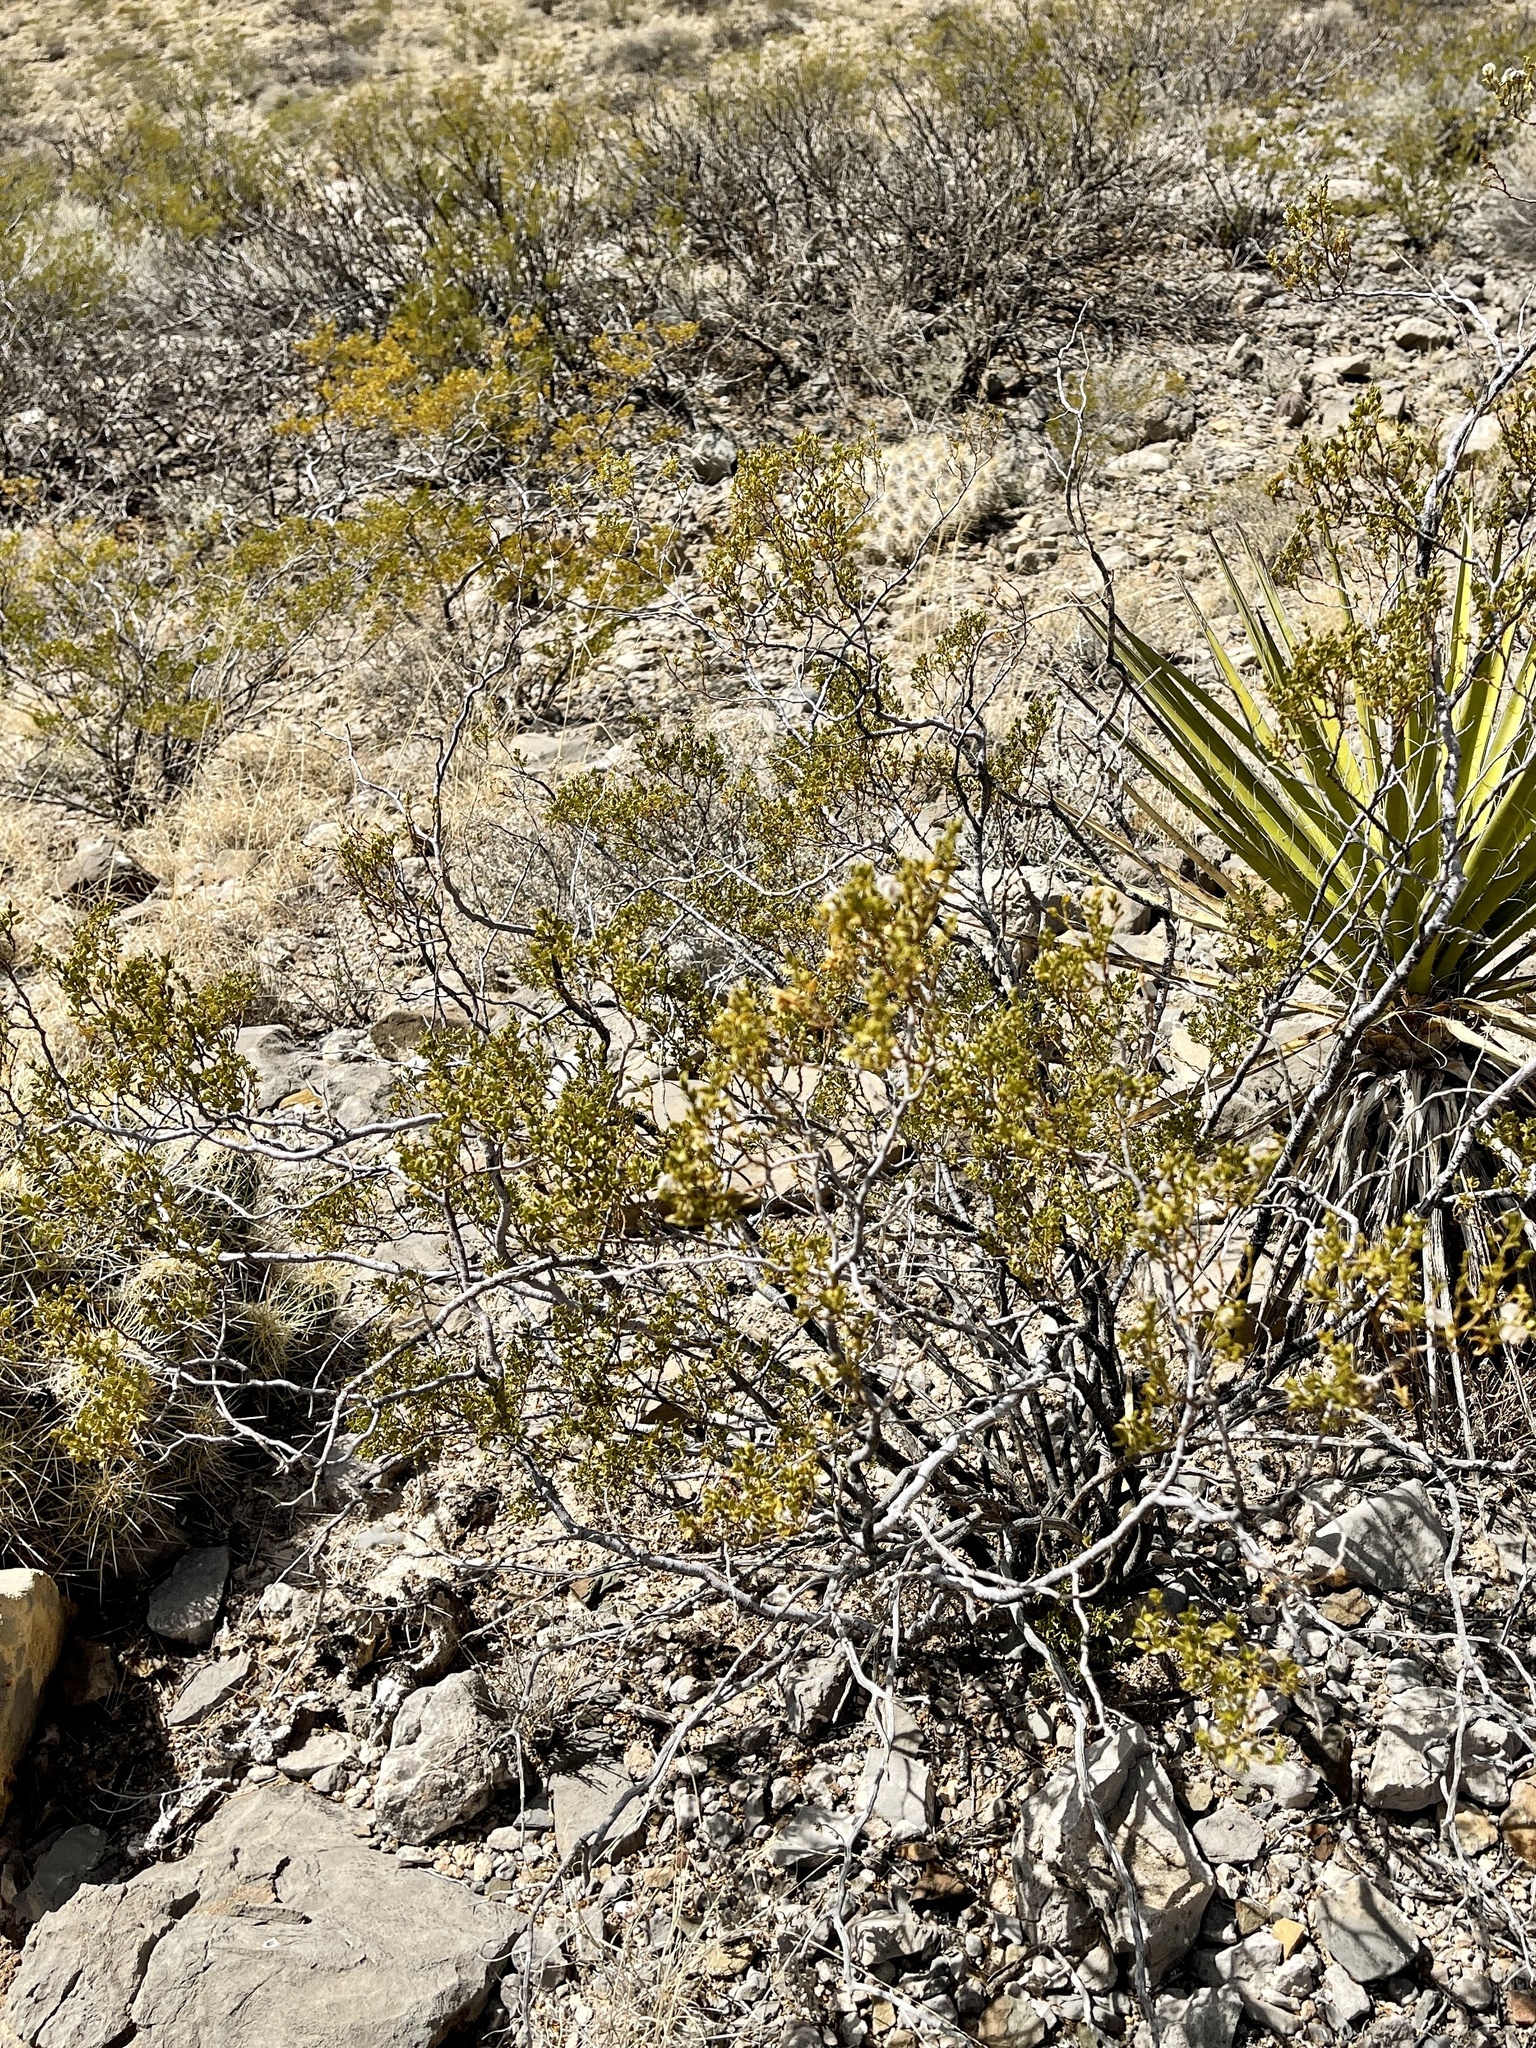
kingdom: Plantae
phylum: Tracheophyta
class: Magnoliopsida
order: Zygophyllales
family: Zygophyllaceae
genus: Larrea
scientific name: Larrea tridentata
